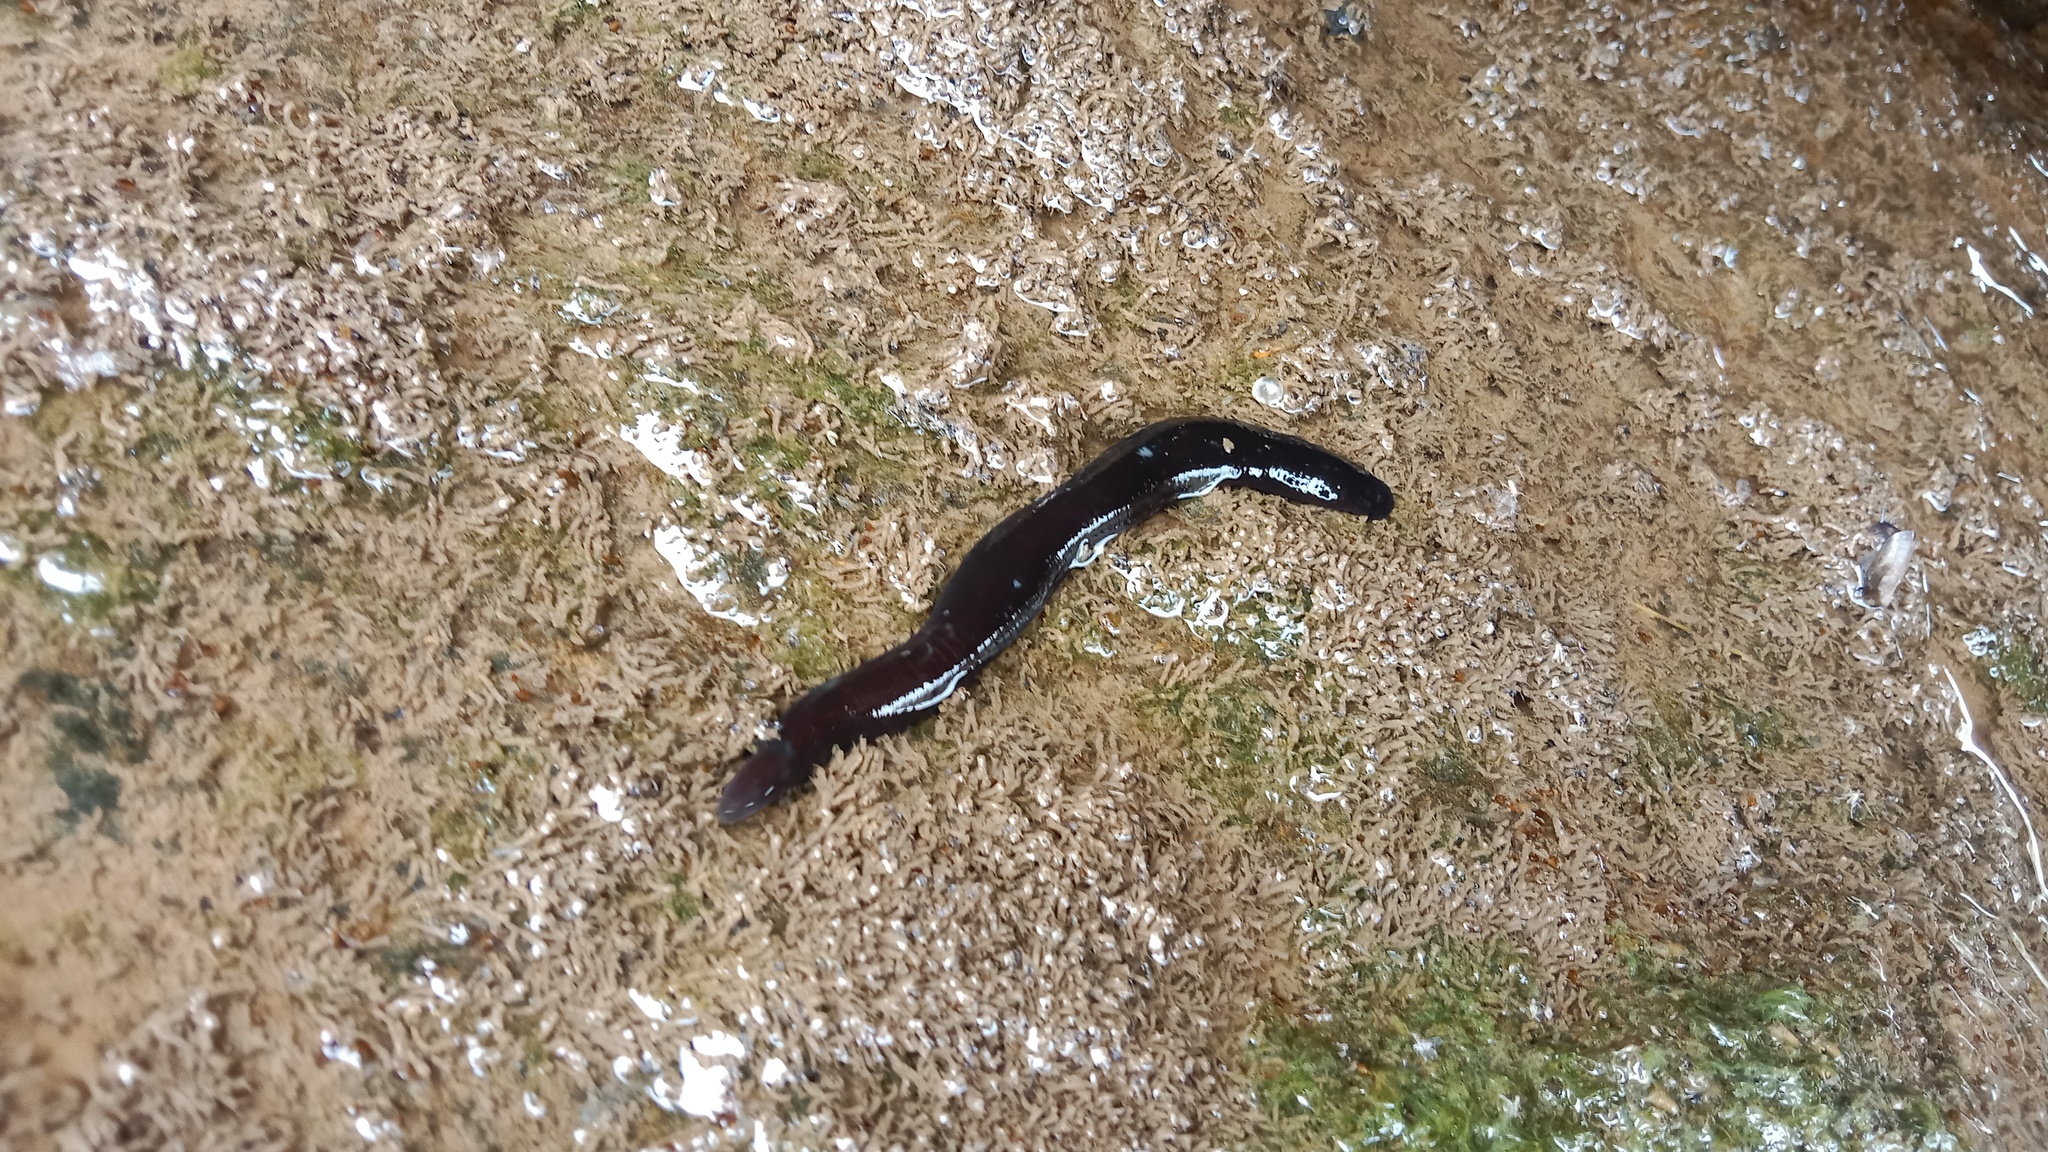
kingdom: Animalia
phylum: Annelida
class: Clitellata
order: Arhynchobdellida
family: Haemopidae
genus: Haemopis
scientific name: Haemopis sanguisuga
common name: Horse leech
